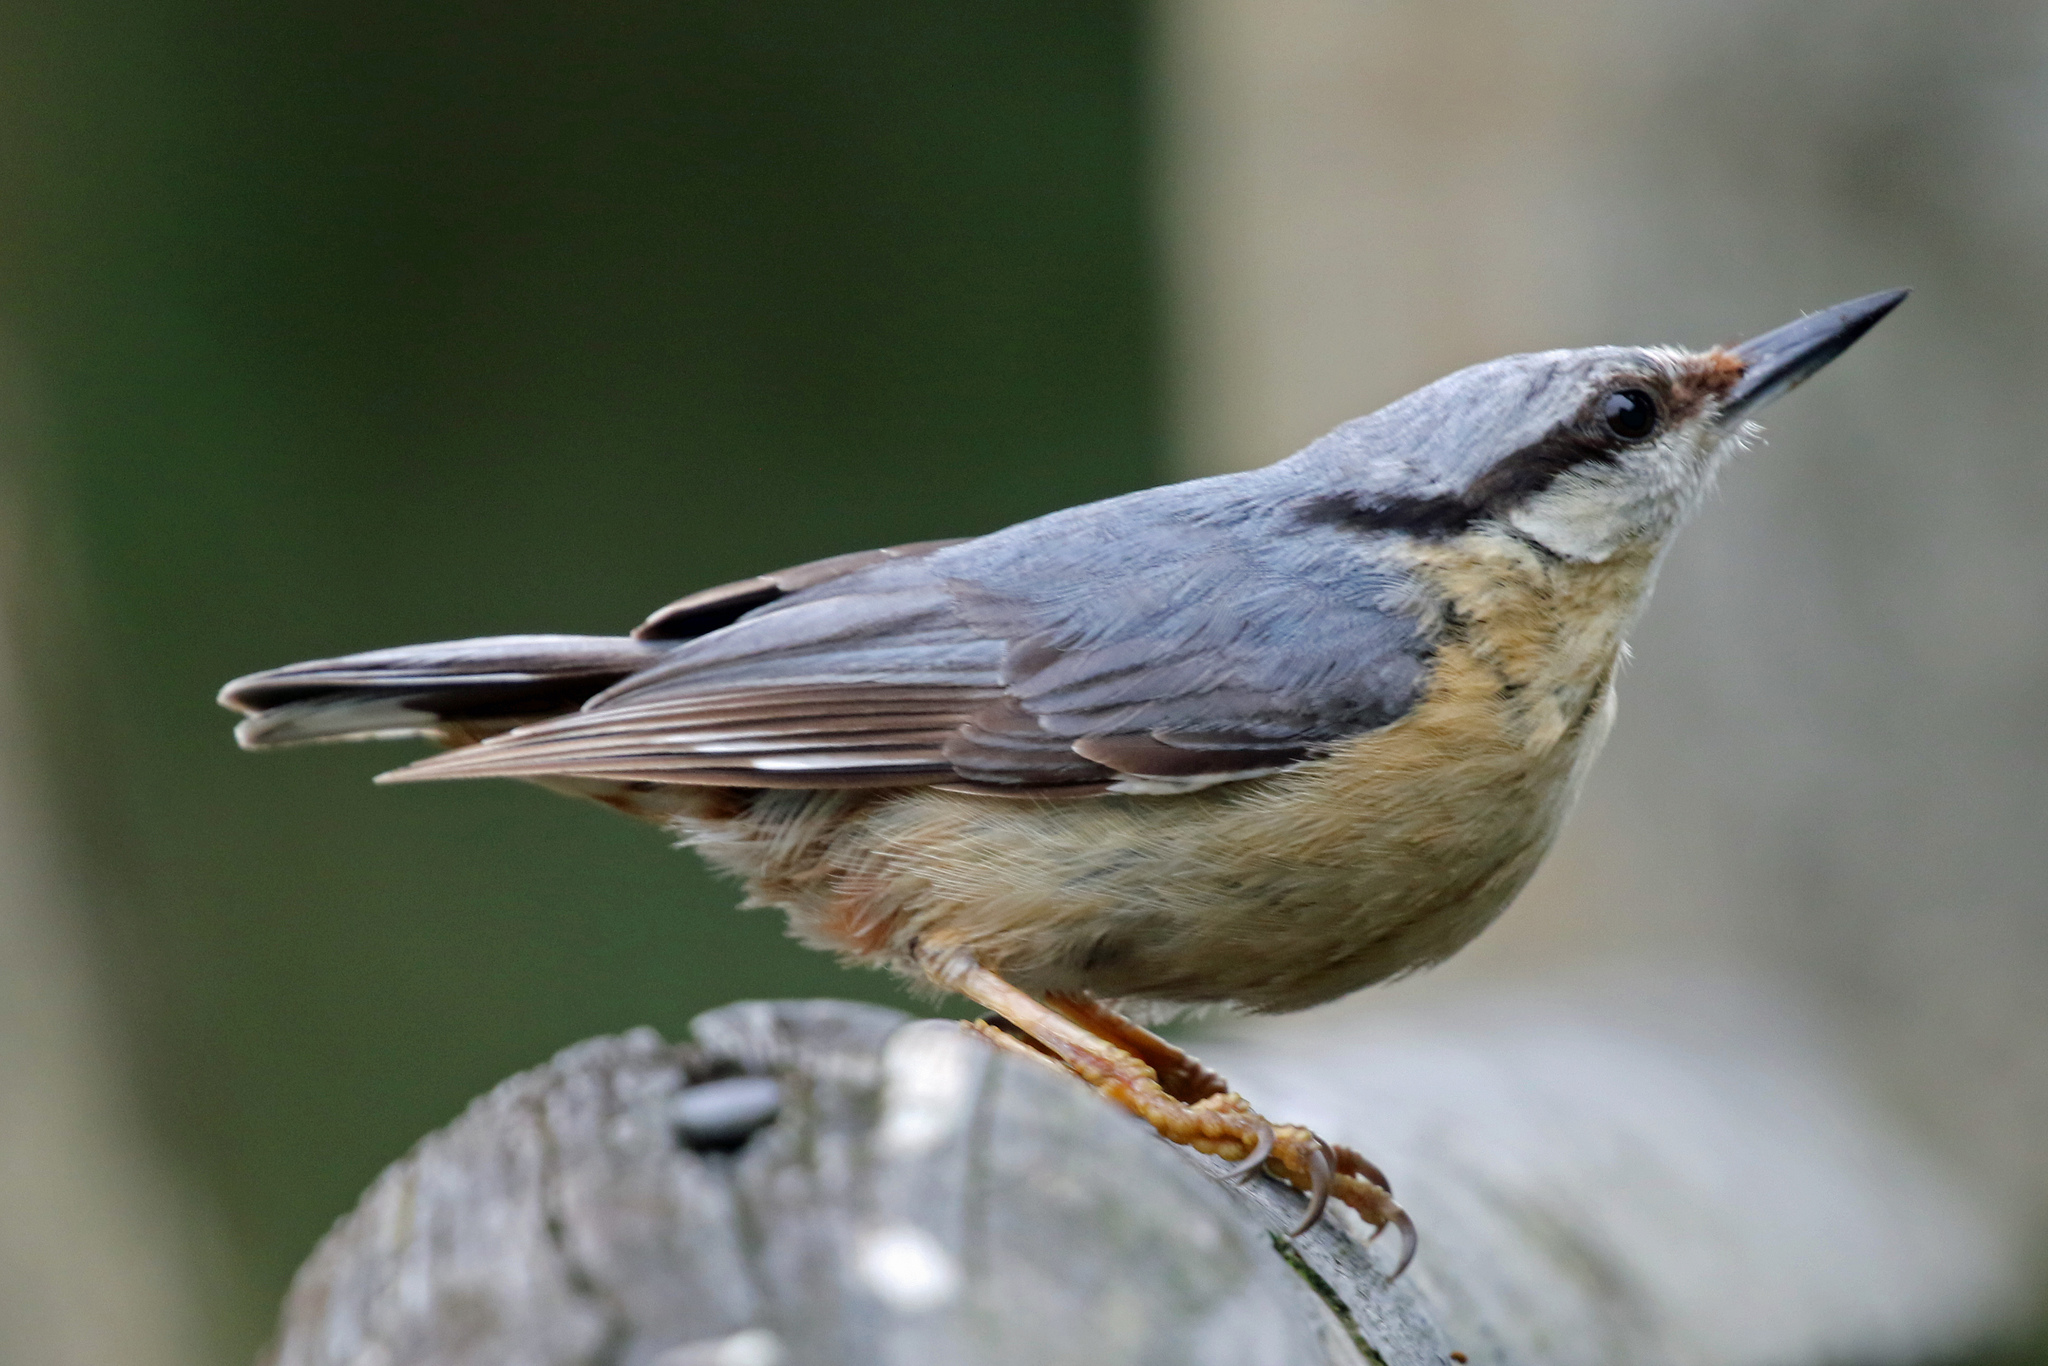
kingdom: Animalia
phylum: Chordata
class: Aves
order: Passeriformes
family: Sittidae
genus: Sitta
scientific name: Sitta europaea
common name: Eurasian nuthatch
